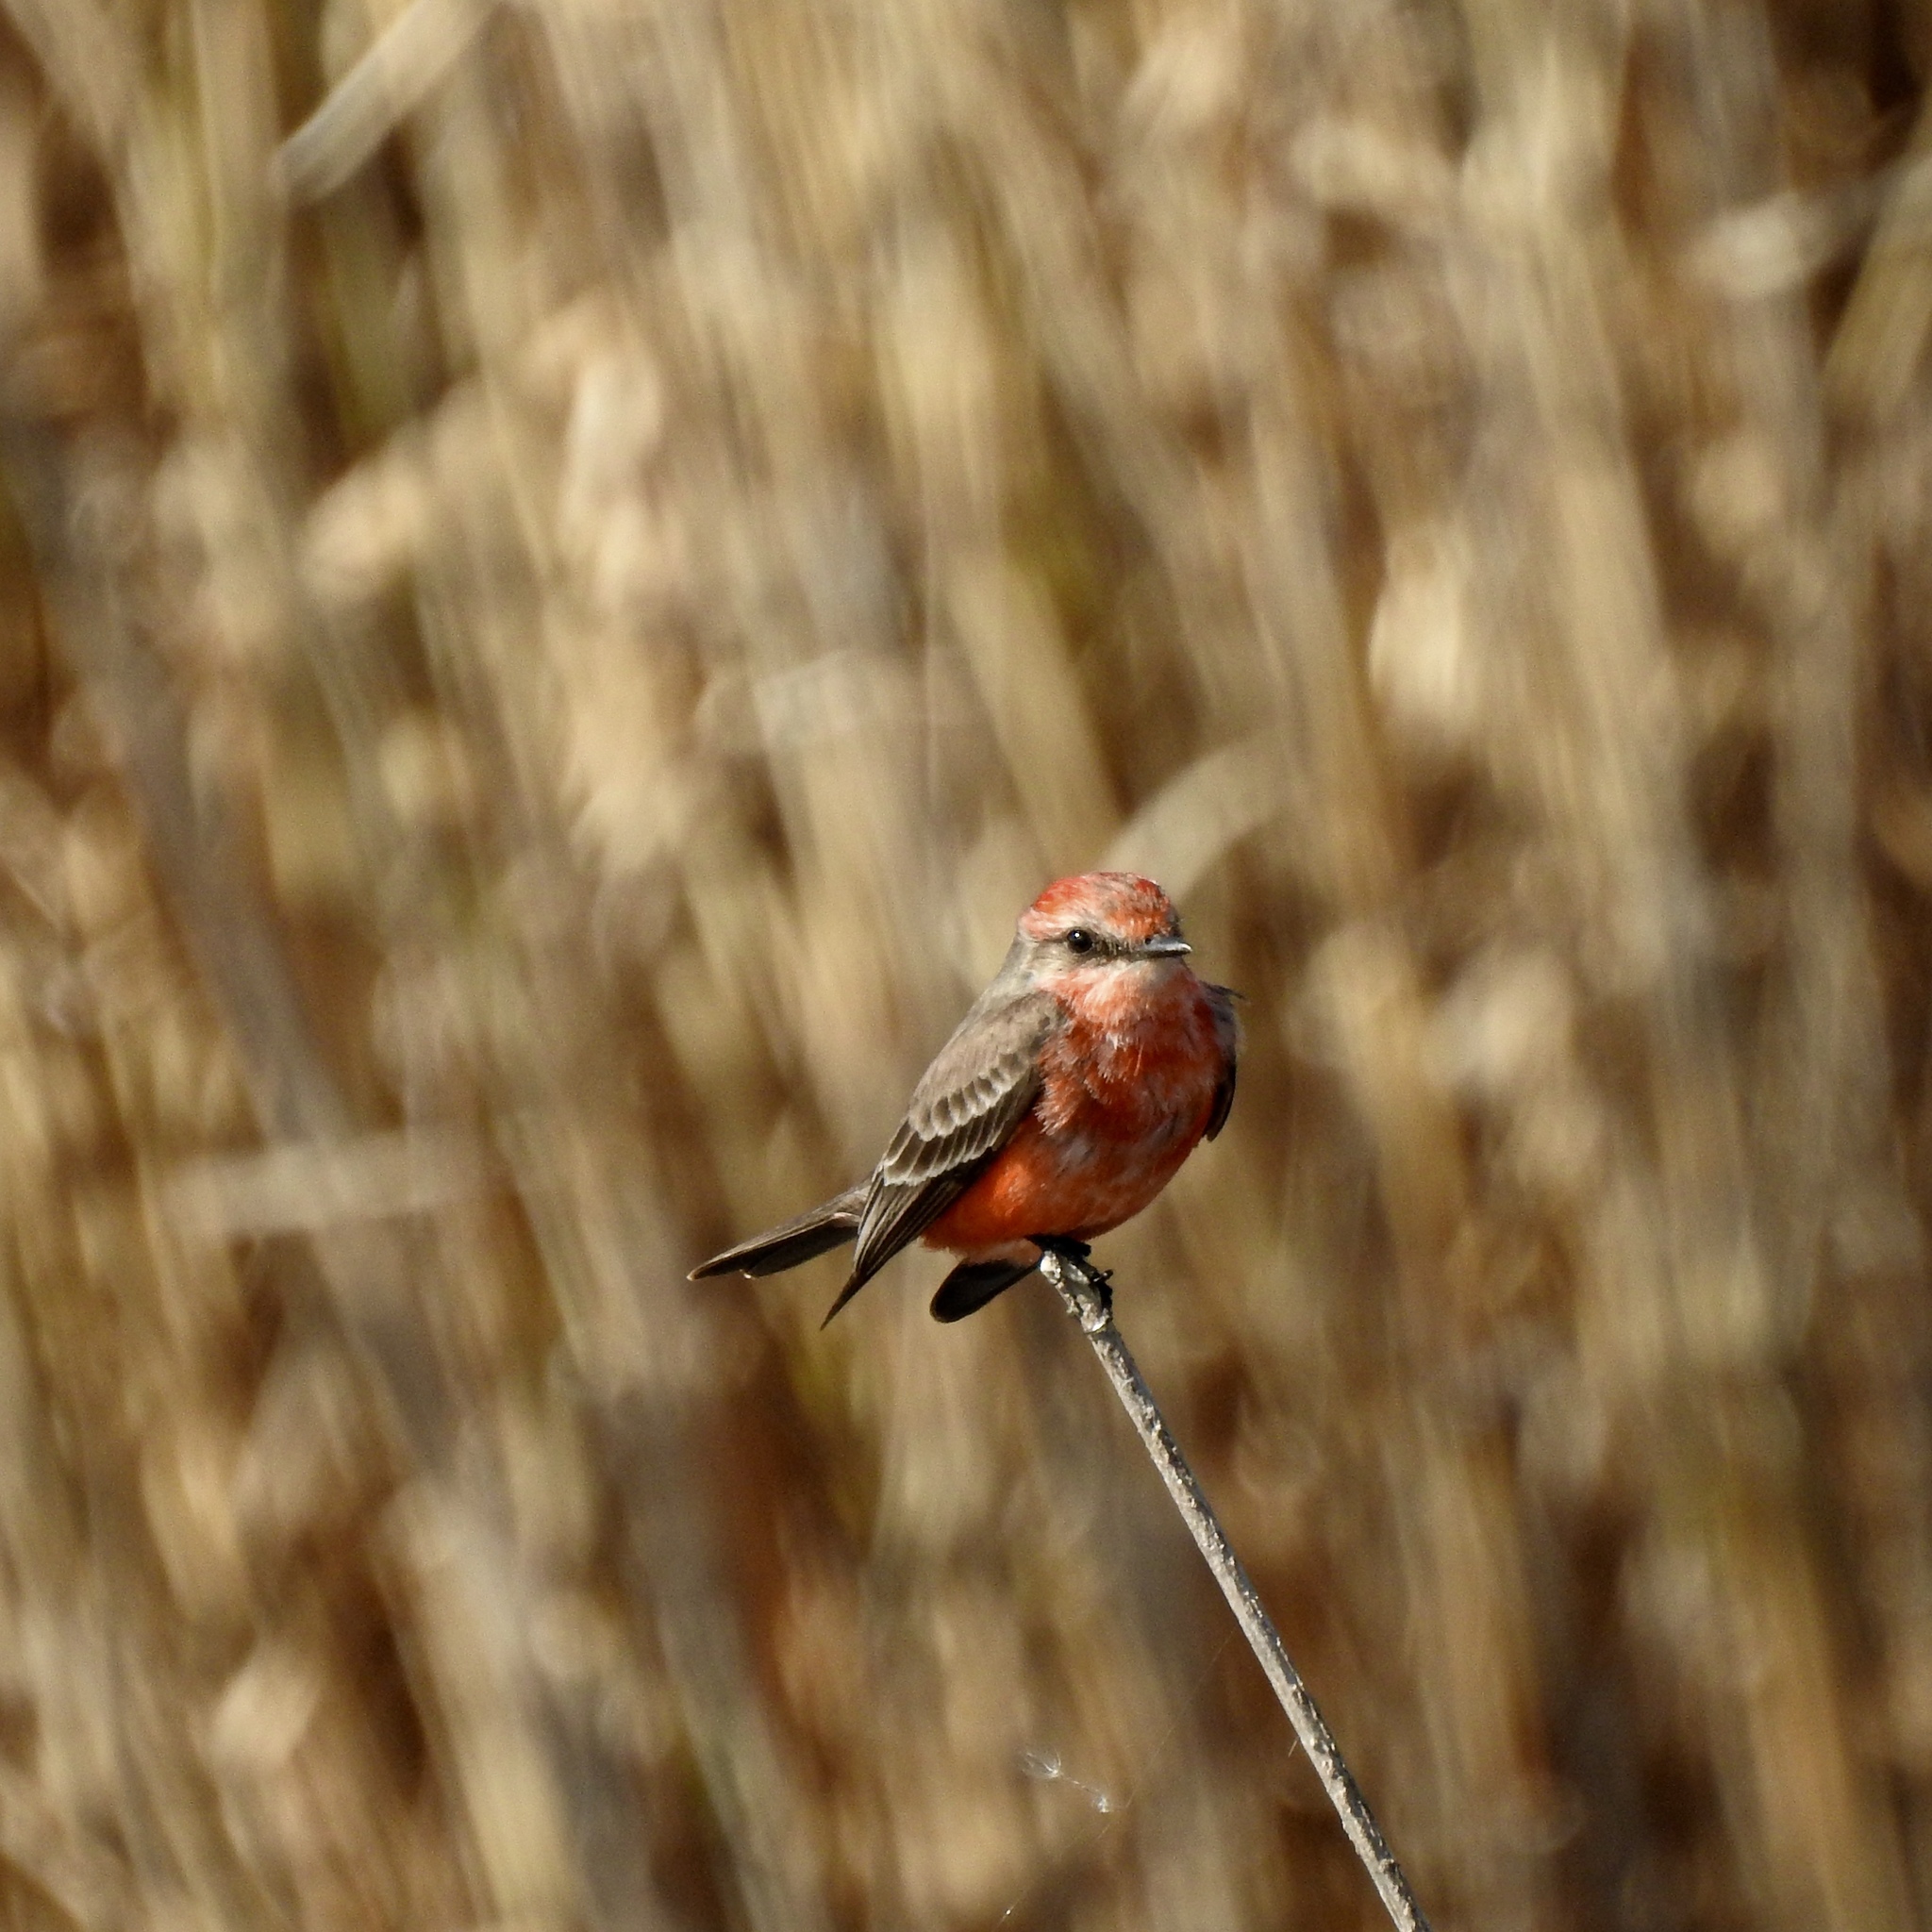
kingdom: Animalia
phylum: Chordata
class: Aves
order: Passeriformes
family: Tyrannidae
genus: Pyrocephalus
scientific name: Pyrocephalus rubinus
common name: Vermilion flycatcher
